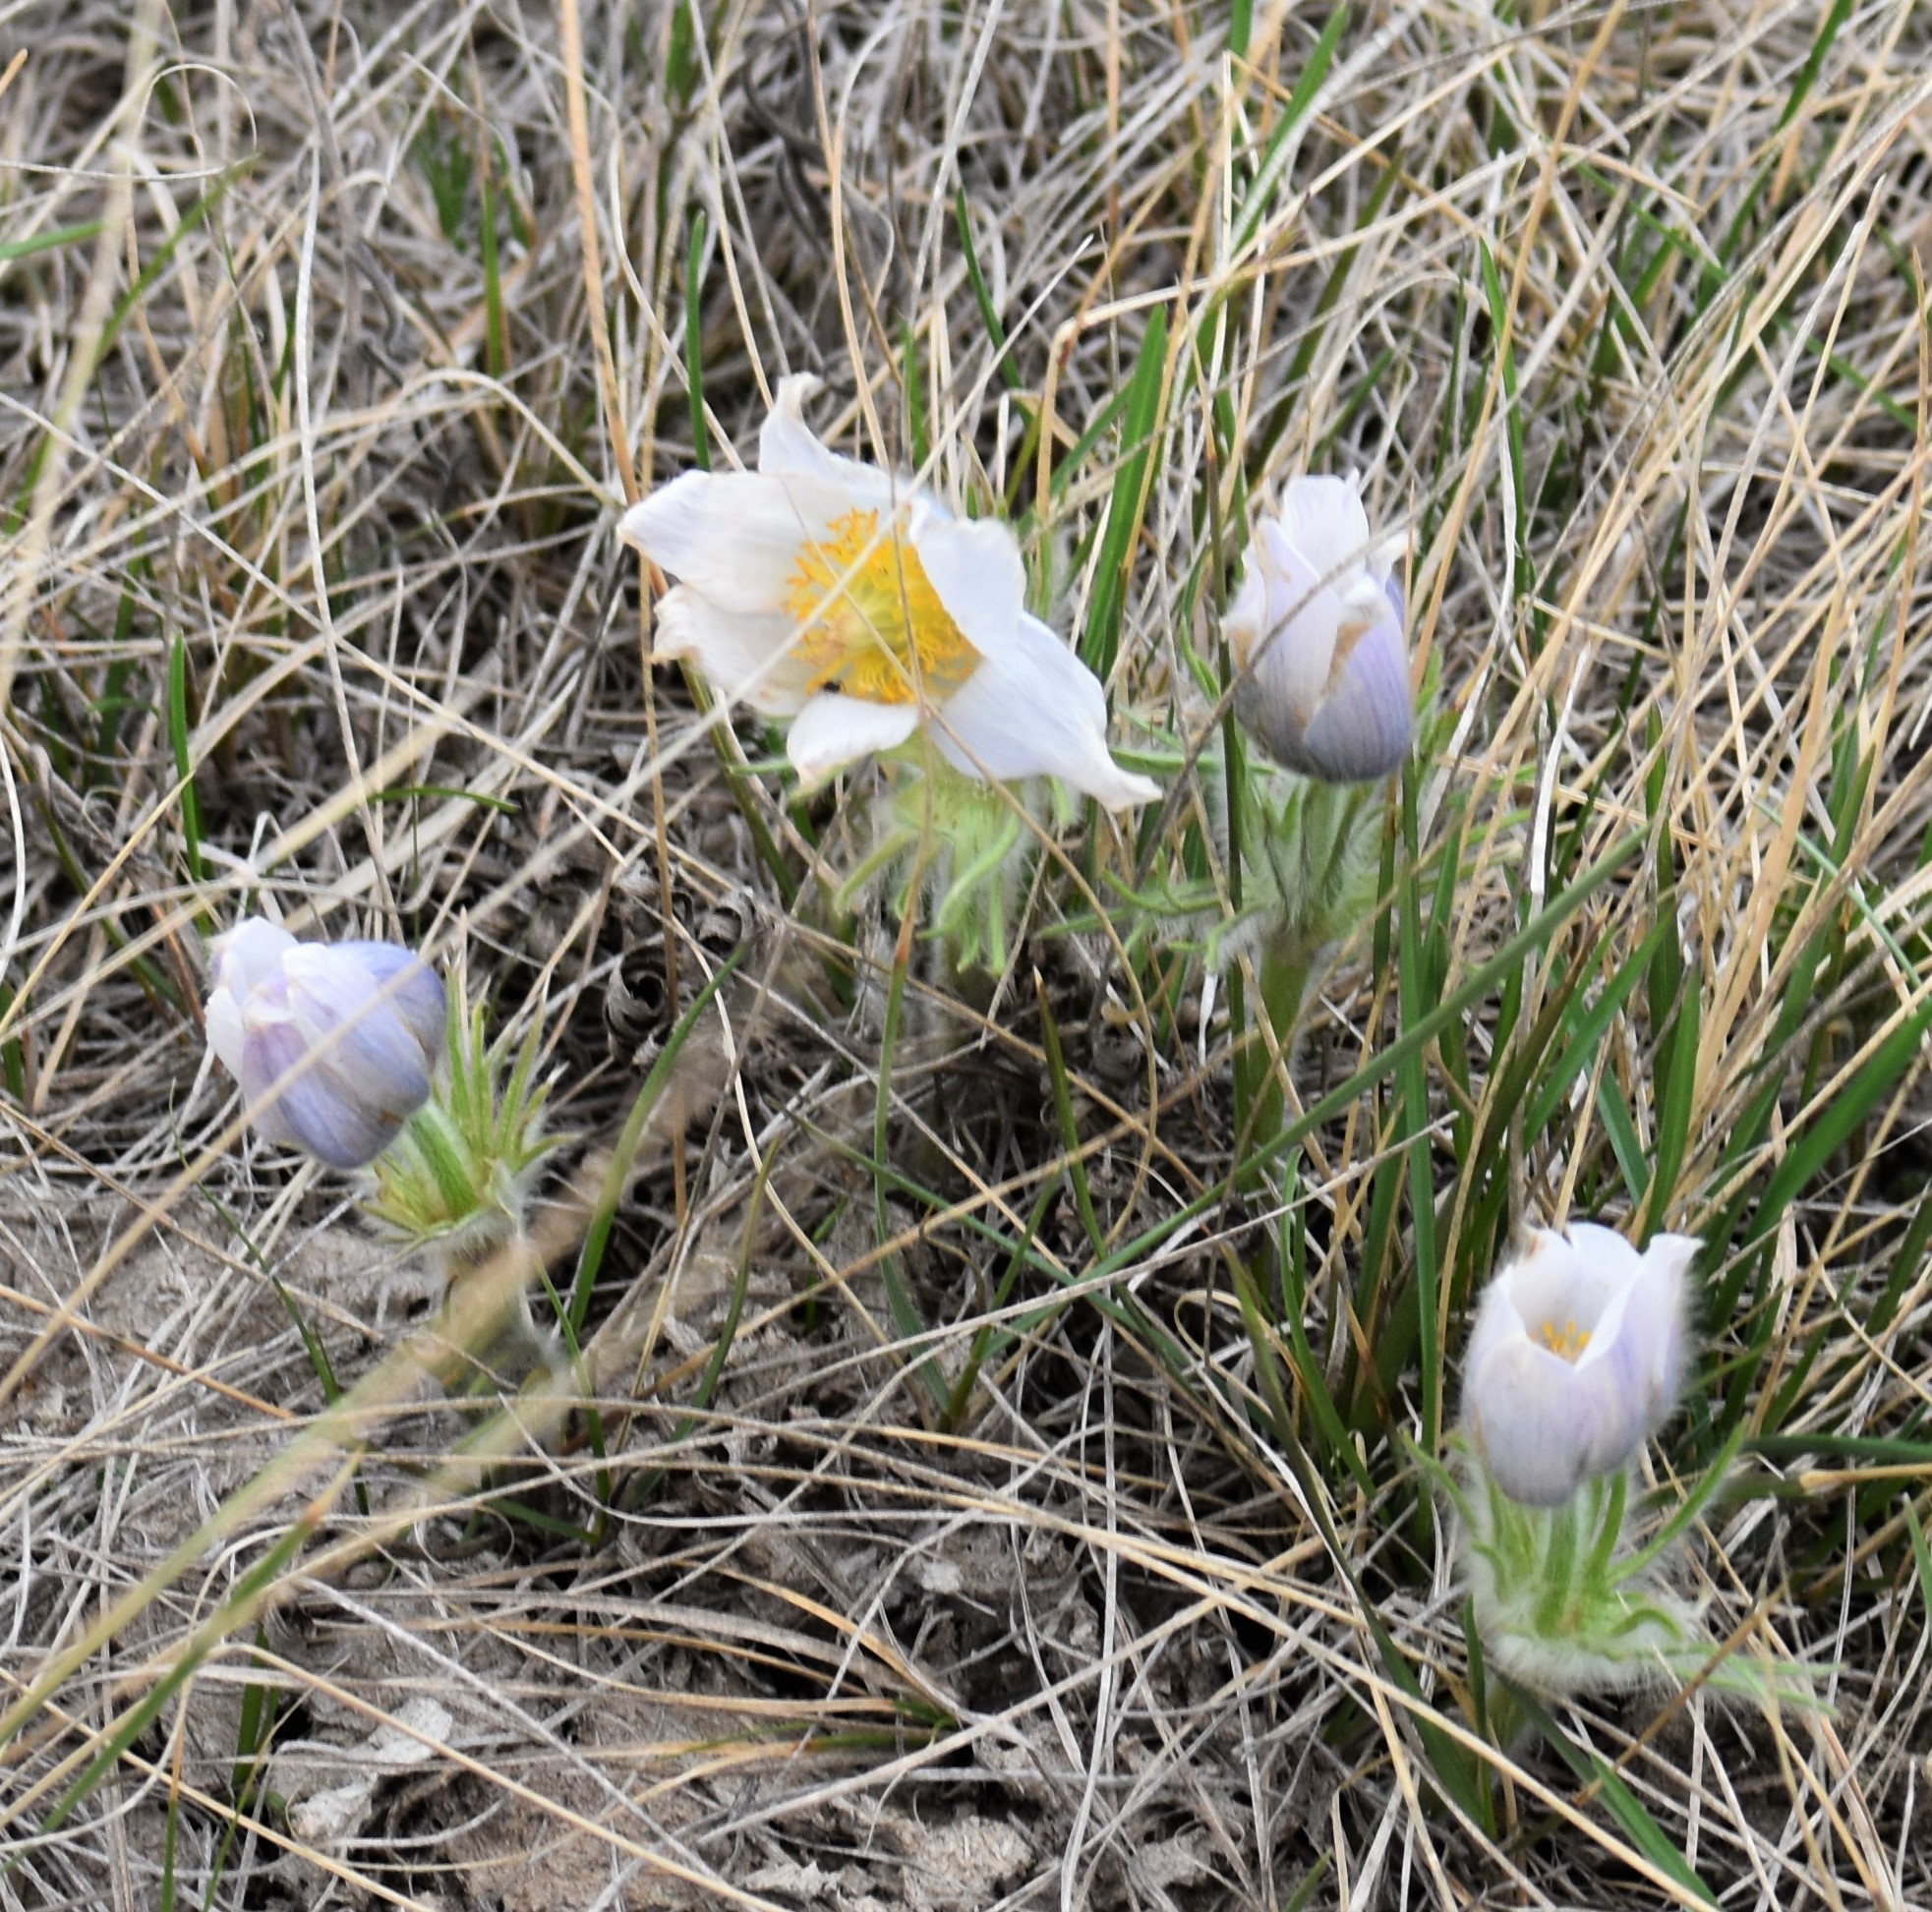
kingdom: Plantae
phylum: Tracheophyta
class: Magnoliopsida
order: Ranunculales
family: Ranunculaceae
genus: Pulsatilla
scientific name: Pulsatilla nuttalliana
